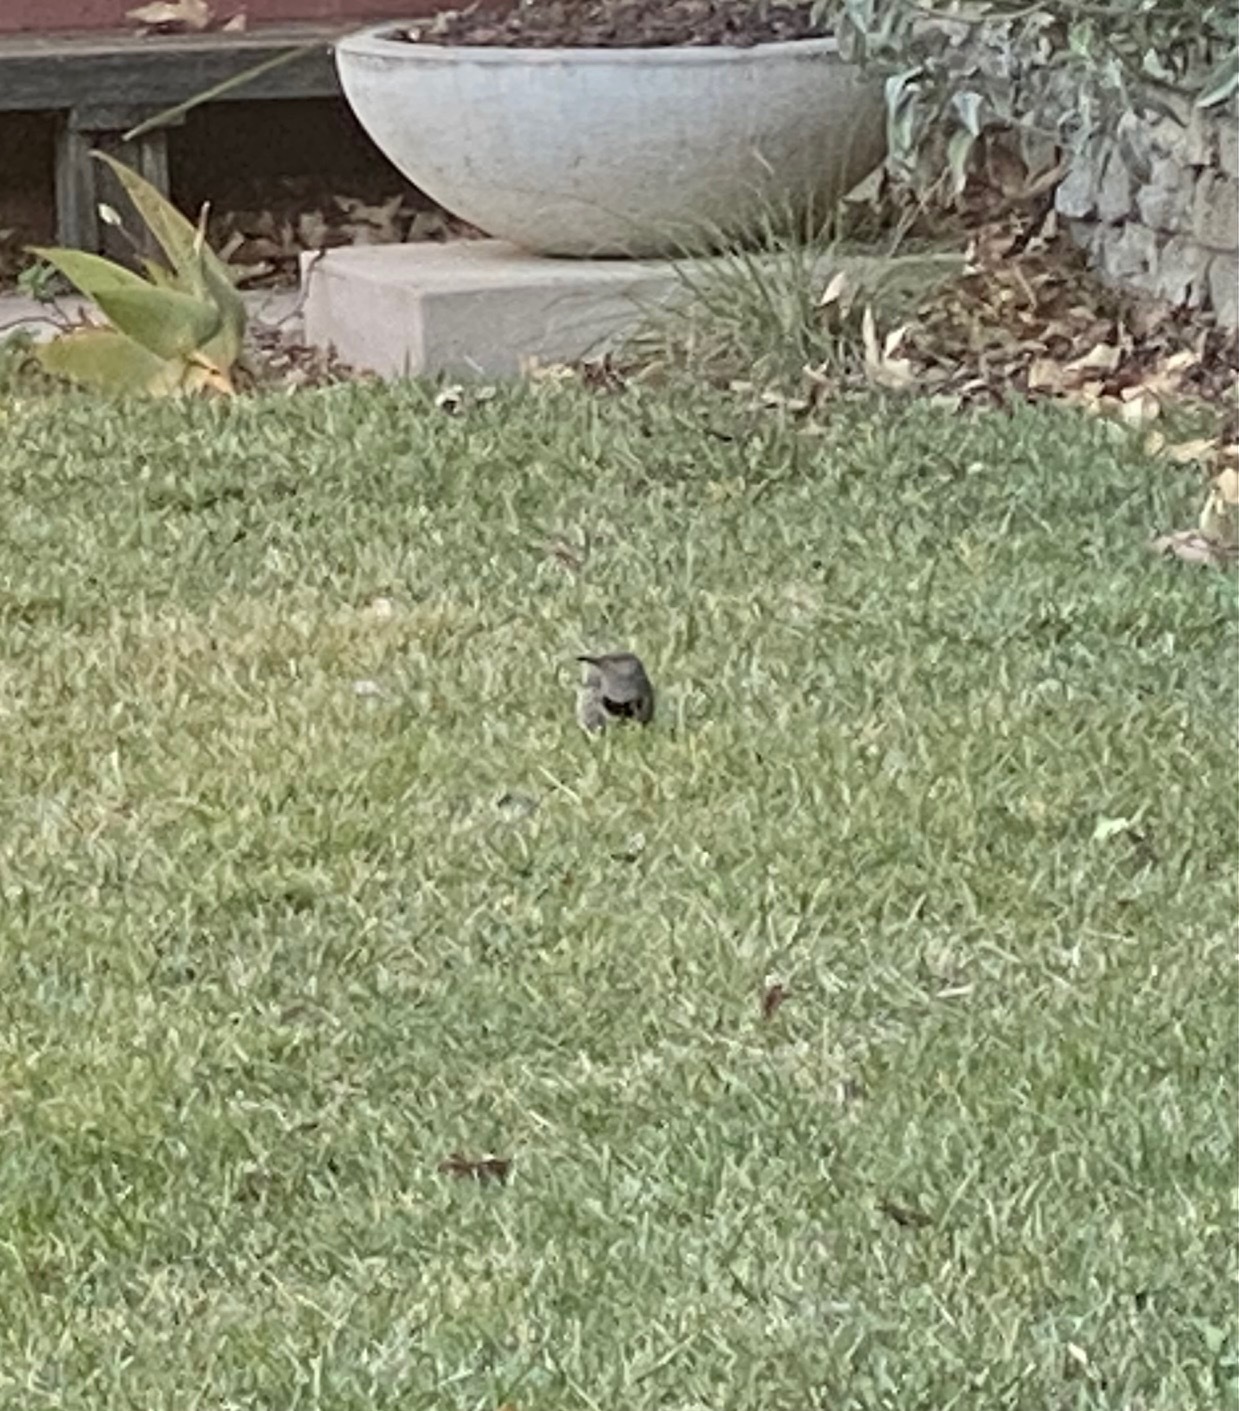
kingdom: Animalia
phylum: Chordata
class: Aves
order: Piciformes
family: Picidae
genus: Colaptes
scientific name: Colaptes auratus
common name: Northern flicker
